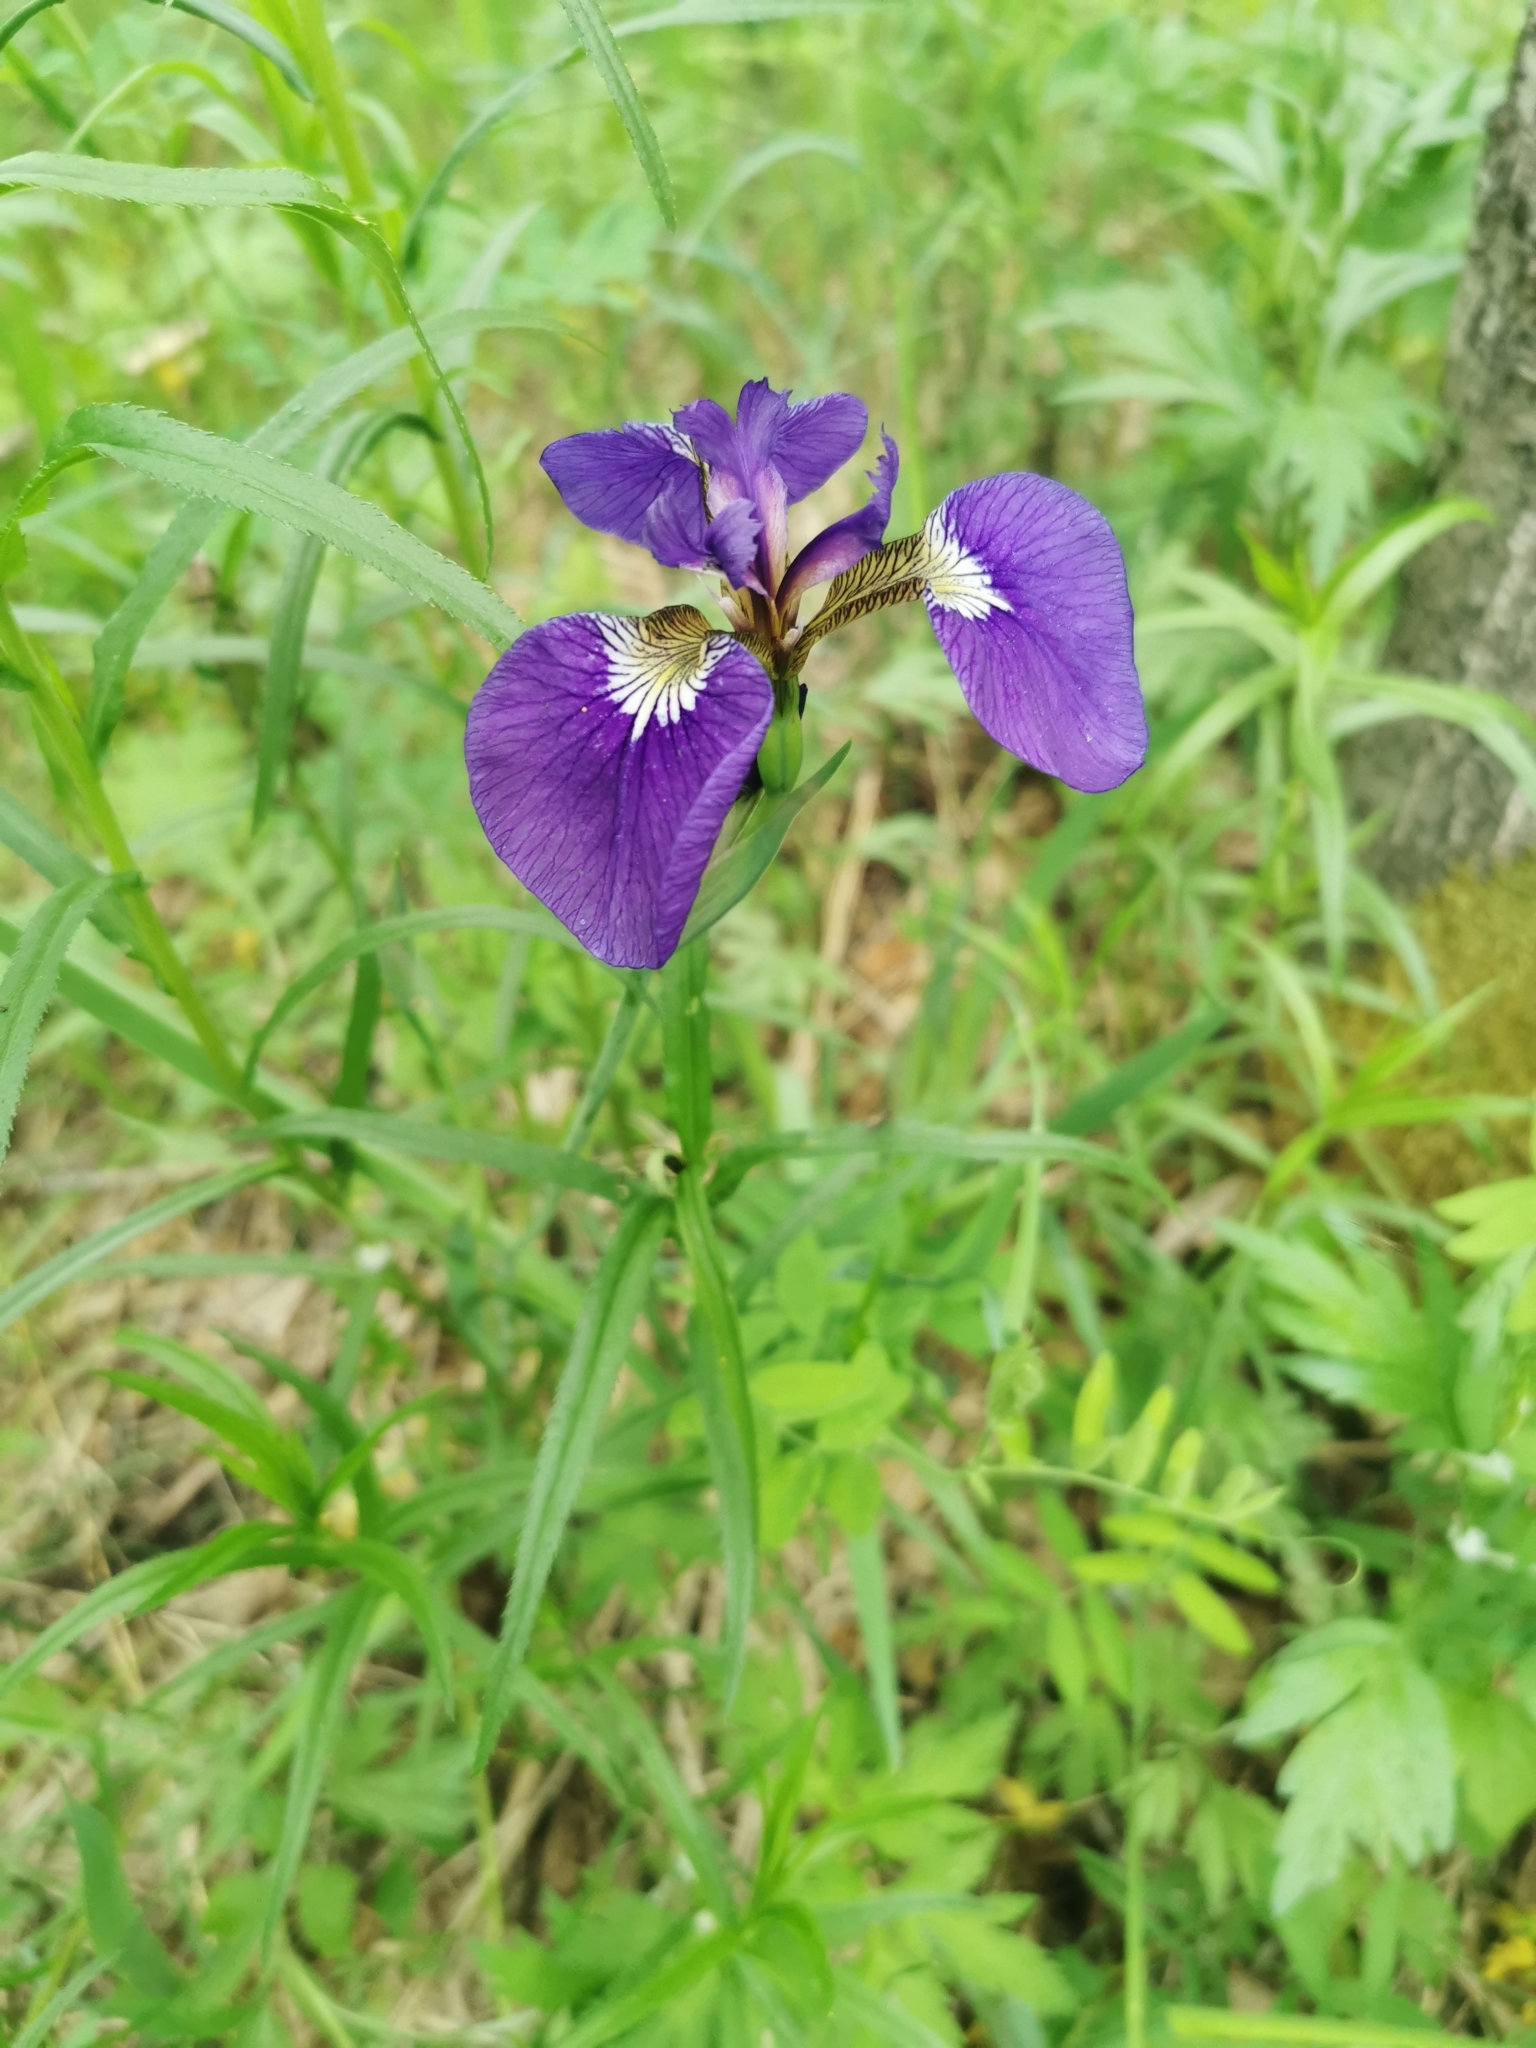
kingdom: Plantae
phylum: Tracheophyta
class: Liliopsida
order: Asparagales
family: Iridaceae
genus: Iris
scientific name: Iris setosa
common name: Arctic blue flag
